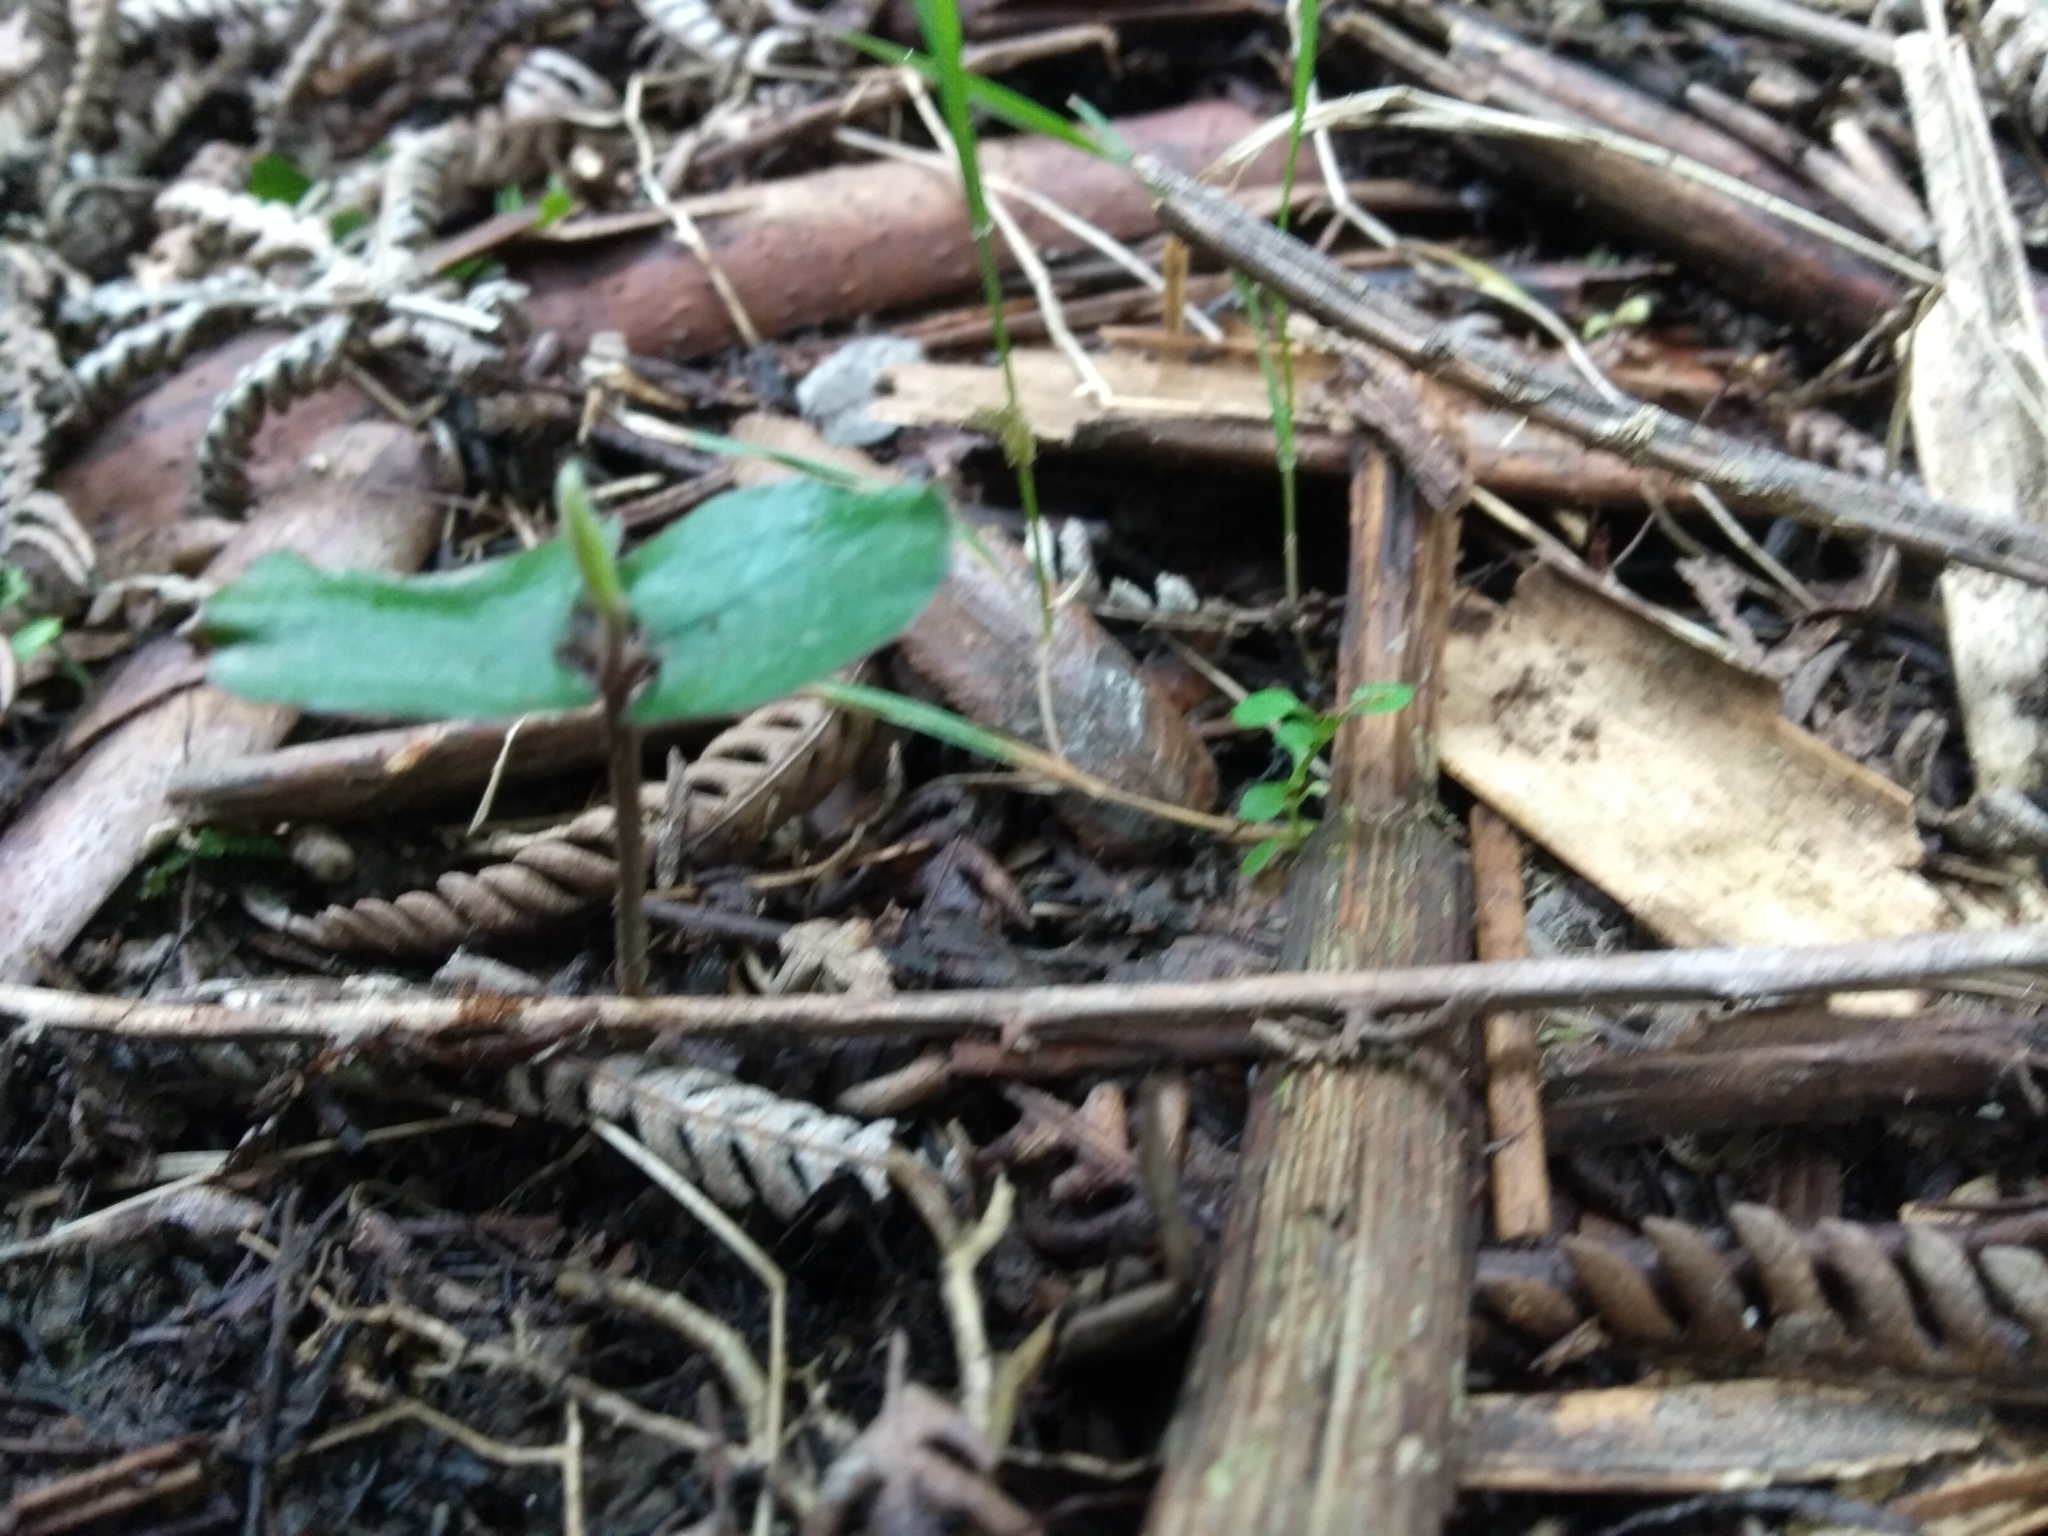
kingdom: Plantae
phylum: Tracheophyta
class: Magnoliopsida
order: Proteales
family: Proteaceae
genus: Knightia
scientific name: Knightia excelsa
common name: New zealand-honeysuckle
